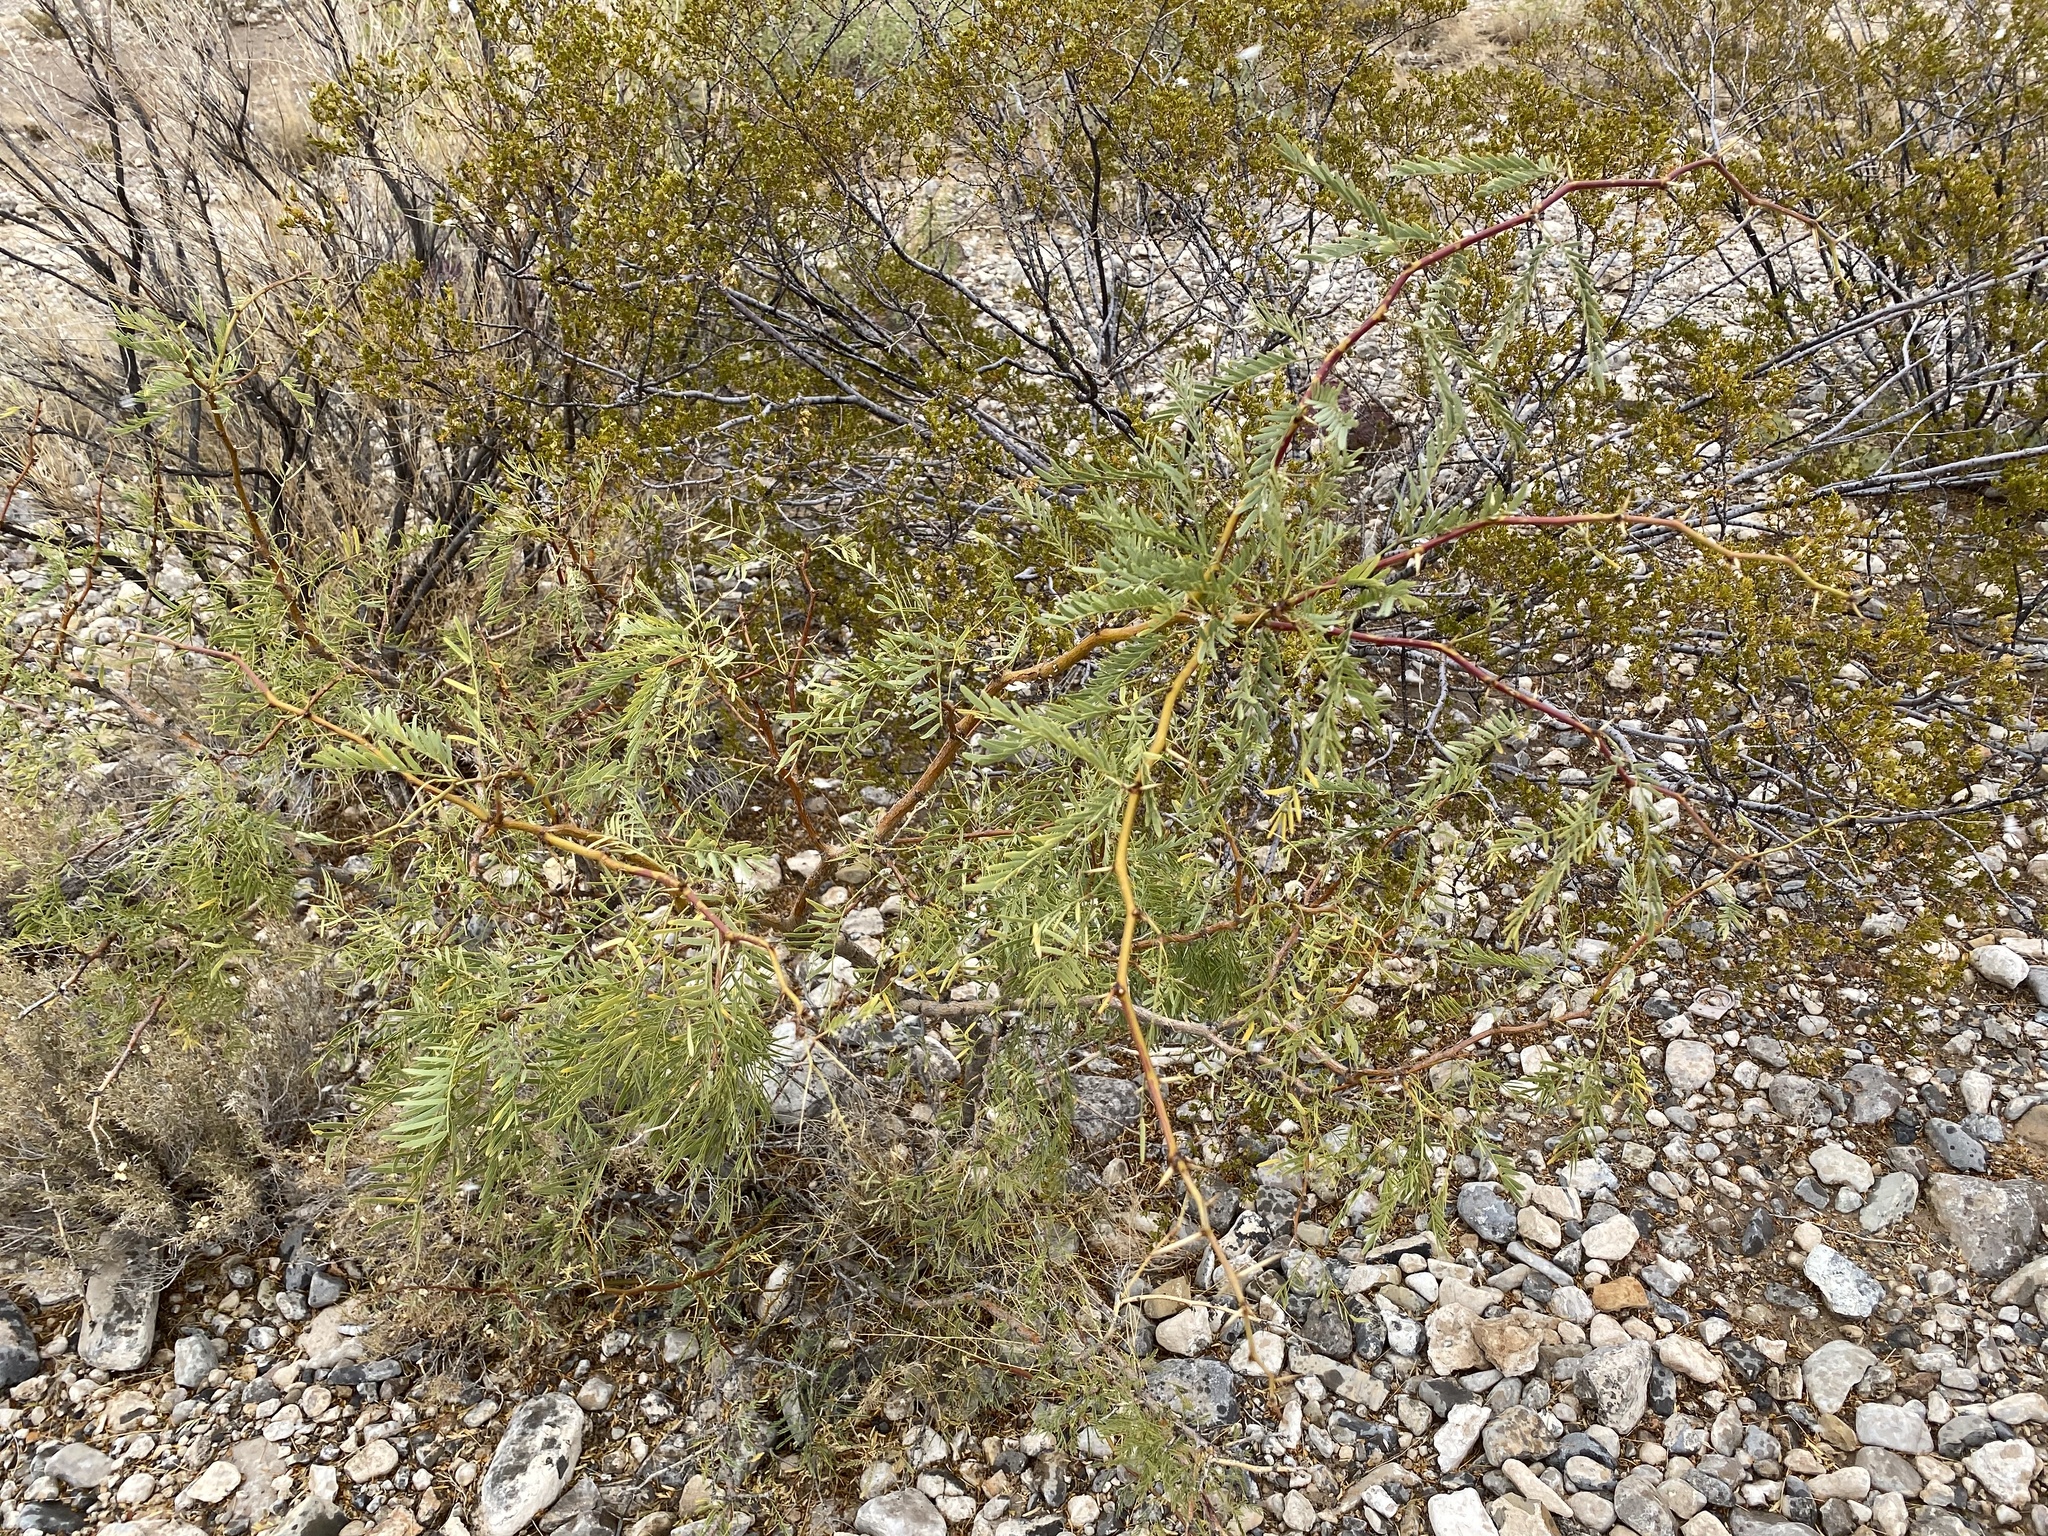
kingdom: Plantae
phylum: Tracheophyta
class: Magnoliopsida
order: Fabales
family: Fabaceae
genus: Prosopis
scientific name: Prosopis glandulosa
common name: Honey mesquite
